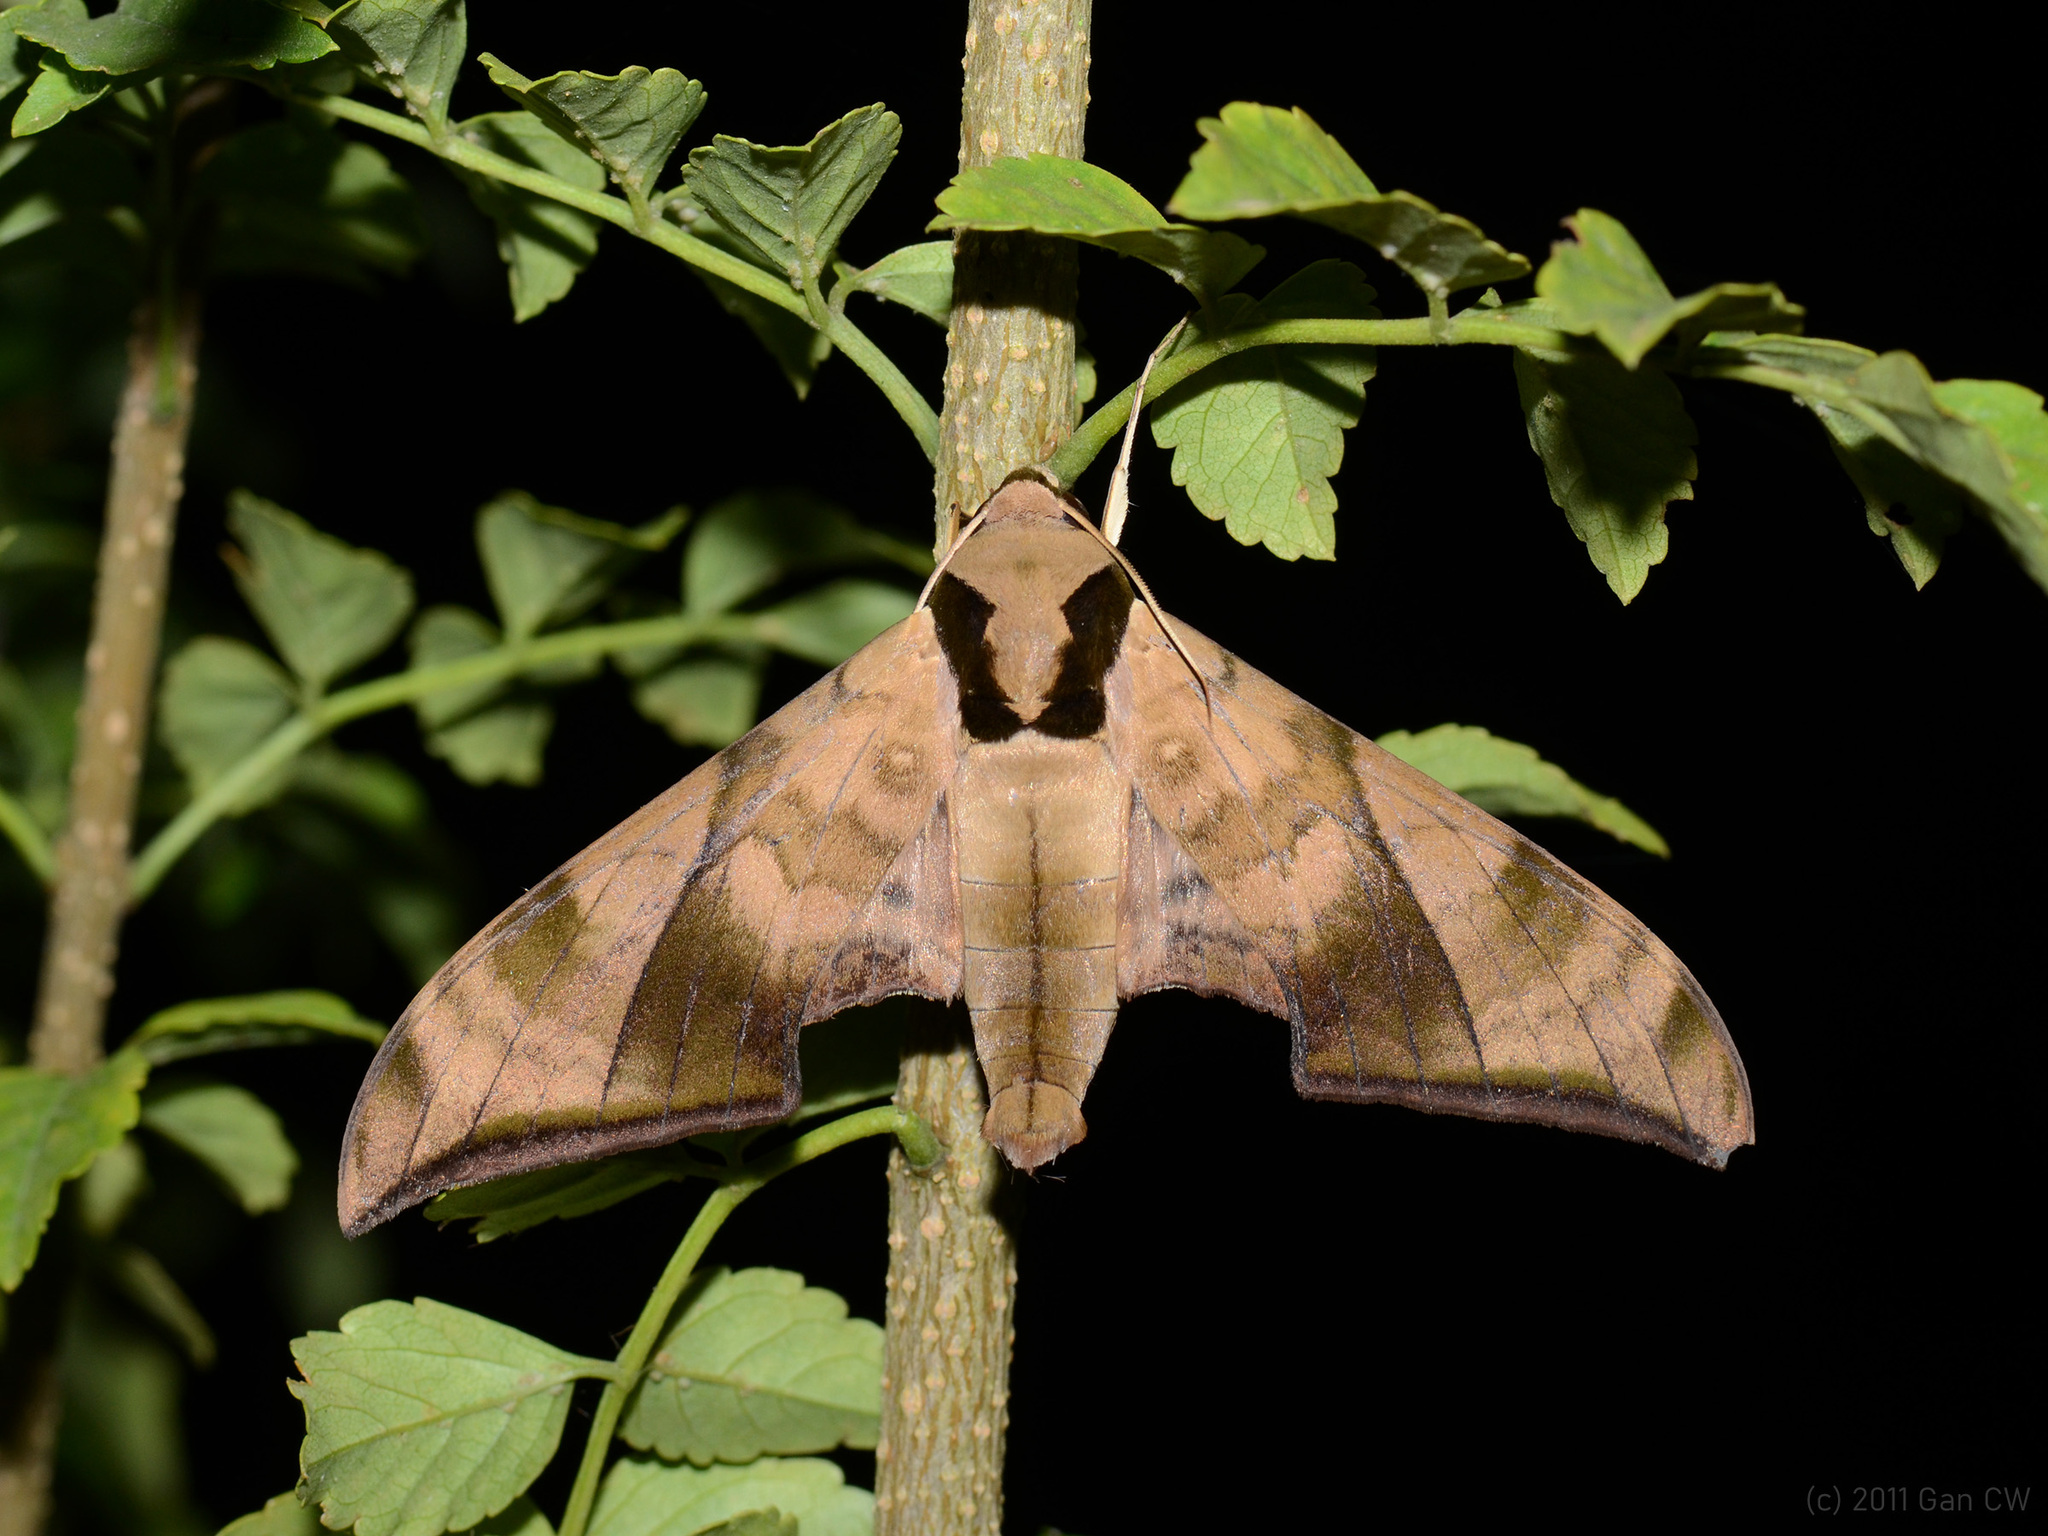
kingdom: Animalia
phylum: Arthropoda
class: Insecta
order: Lepidoptera
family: Sphingidae
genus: Ambulyx
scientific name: Ambulyx tattina
